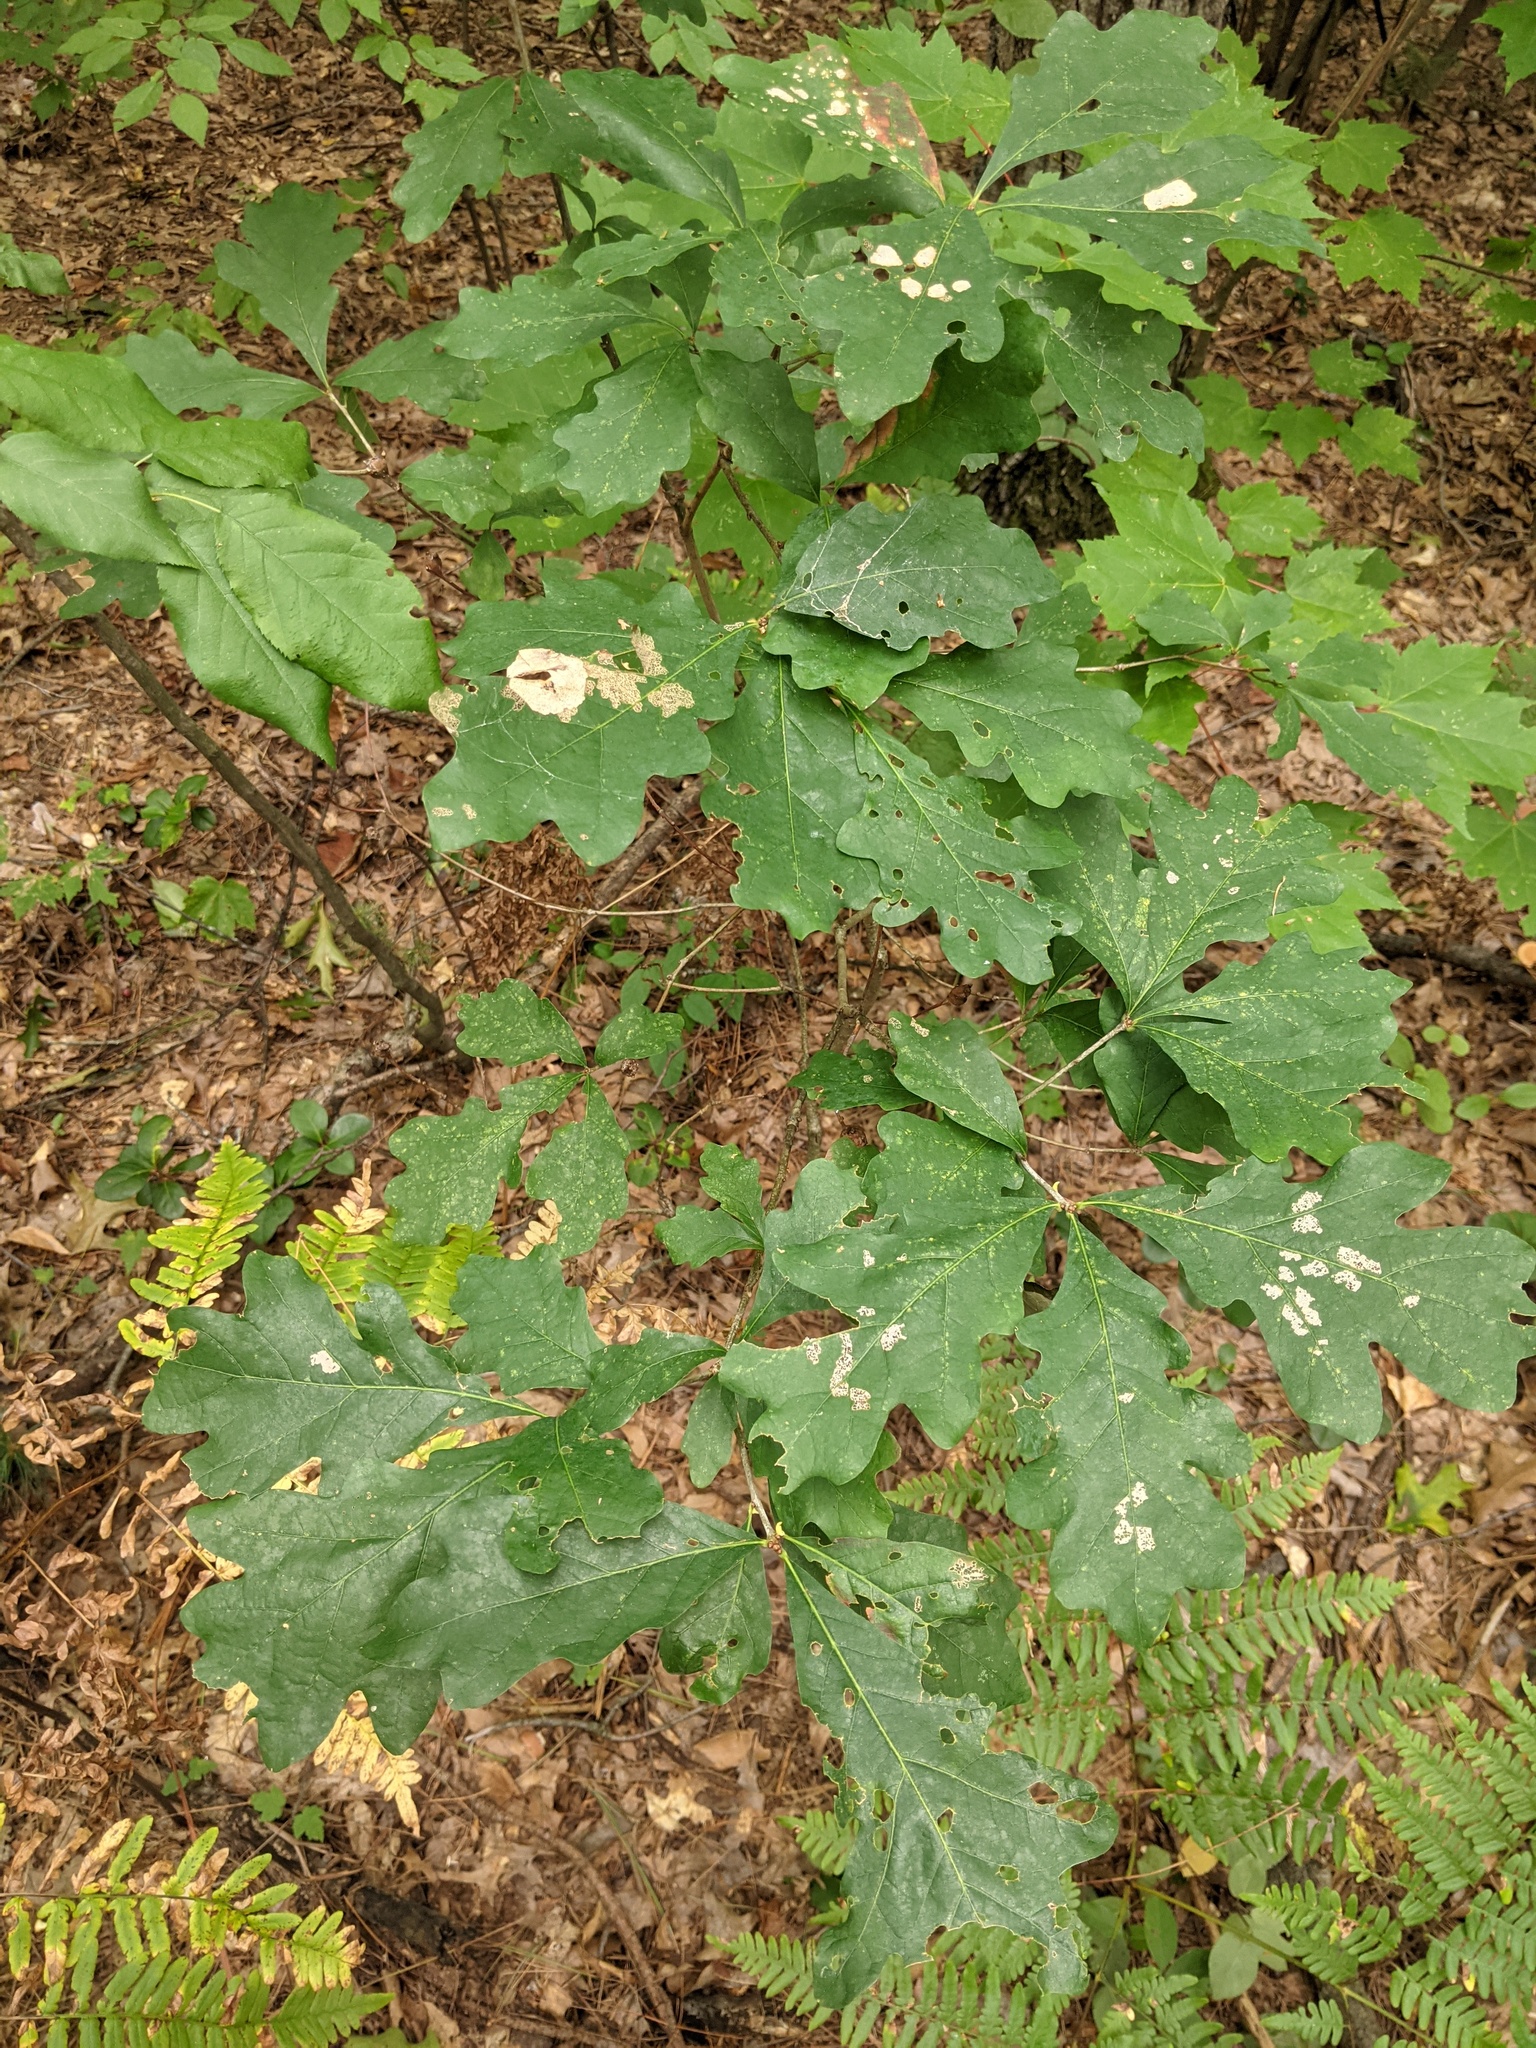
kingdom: Plantae
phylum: Tracheophyta
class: Magnoliopsida
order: Fagales
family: Fagaceae
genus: Quercus
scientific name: Quercus alba
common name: White oak
